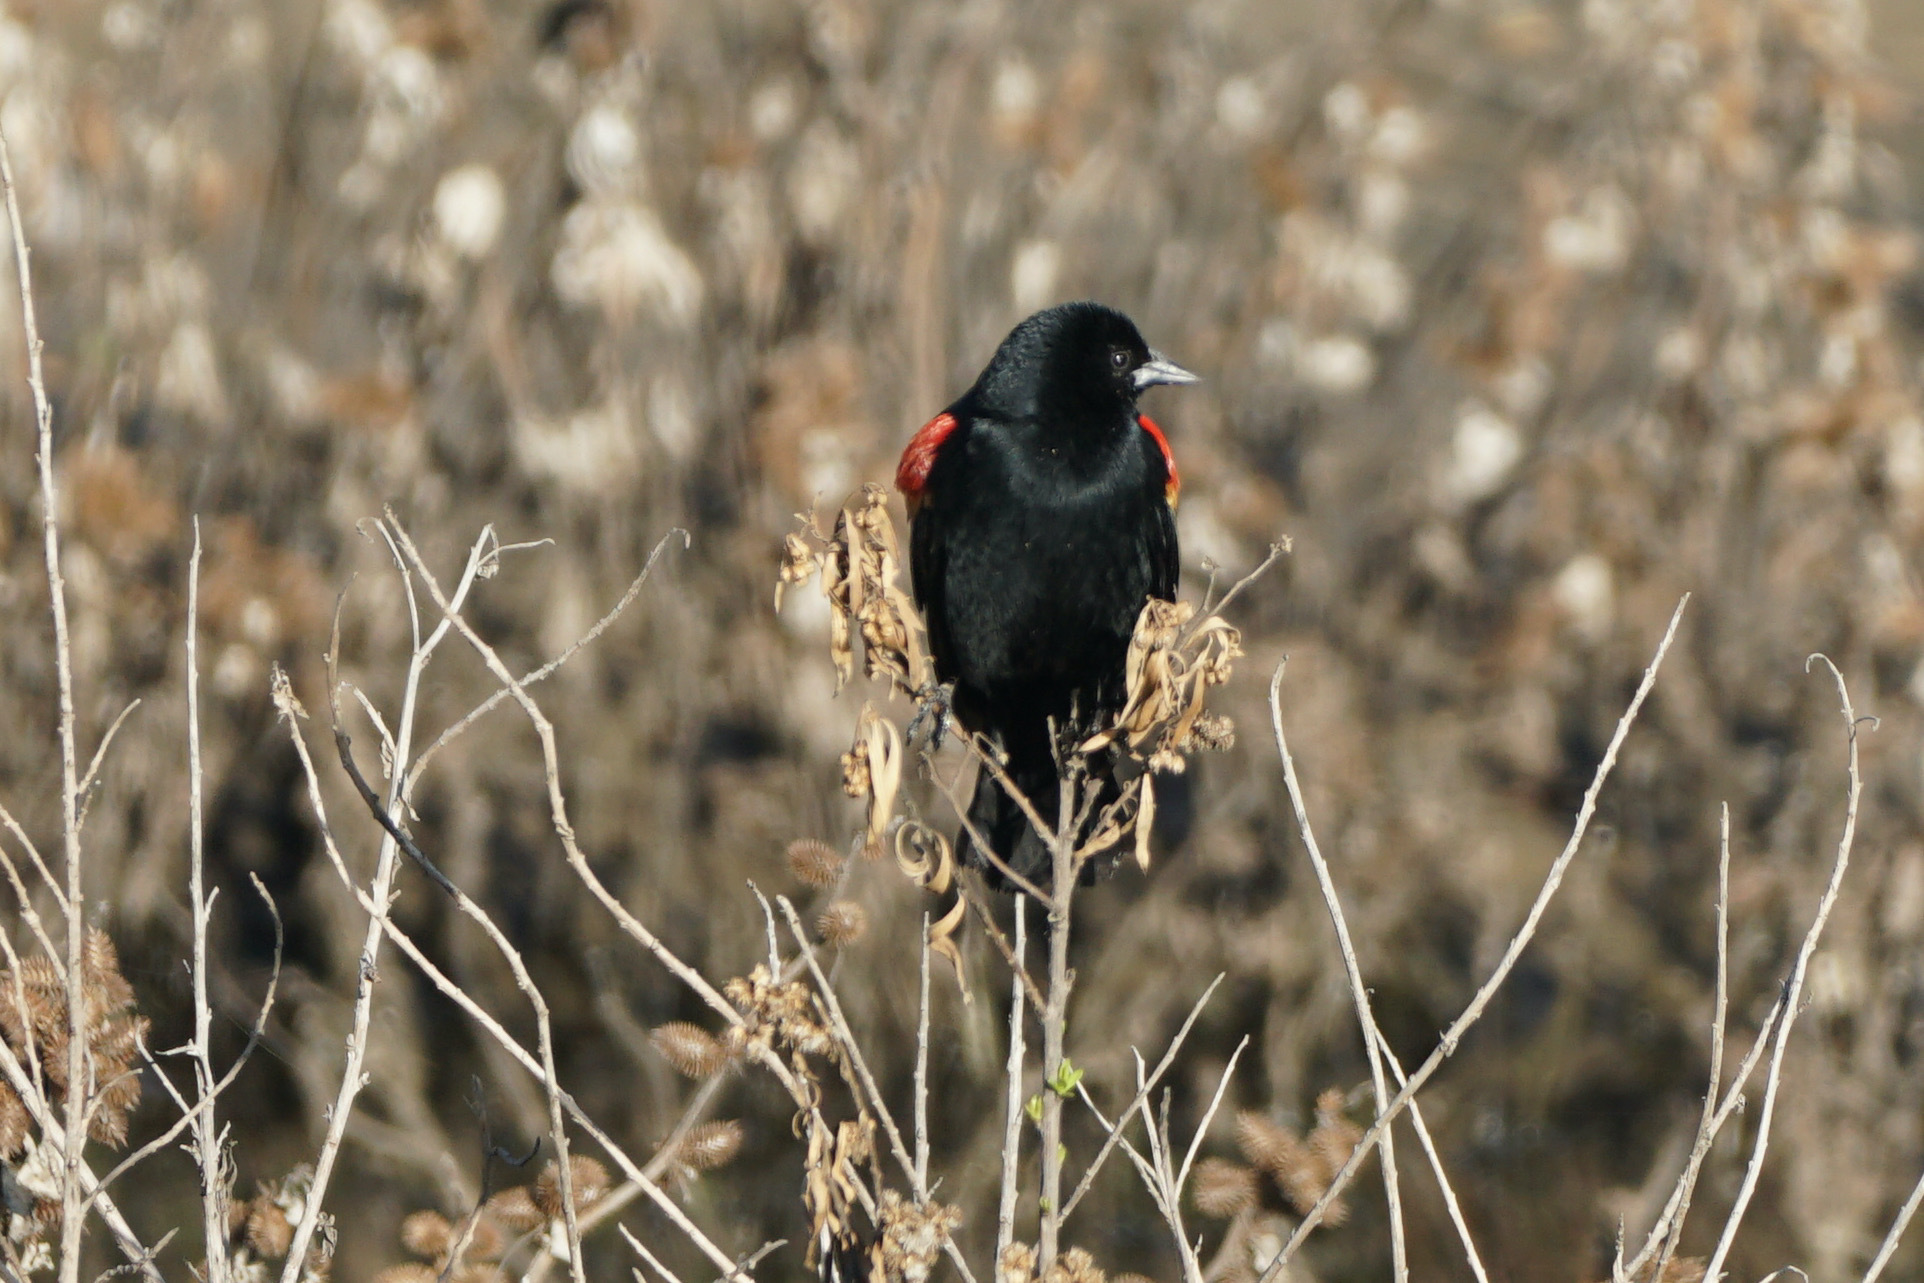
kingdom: Animalia
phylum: Chordata
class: Aves
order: Passeriformes
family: Icteridae
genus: Agelaius
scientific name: Agelaius phoeniceus
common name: Red-winged blackbird
